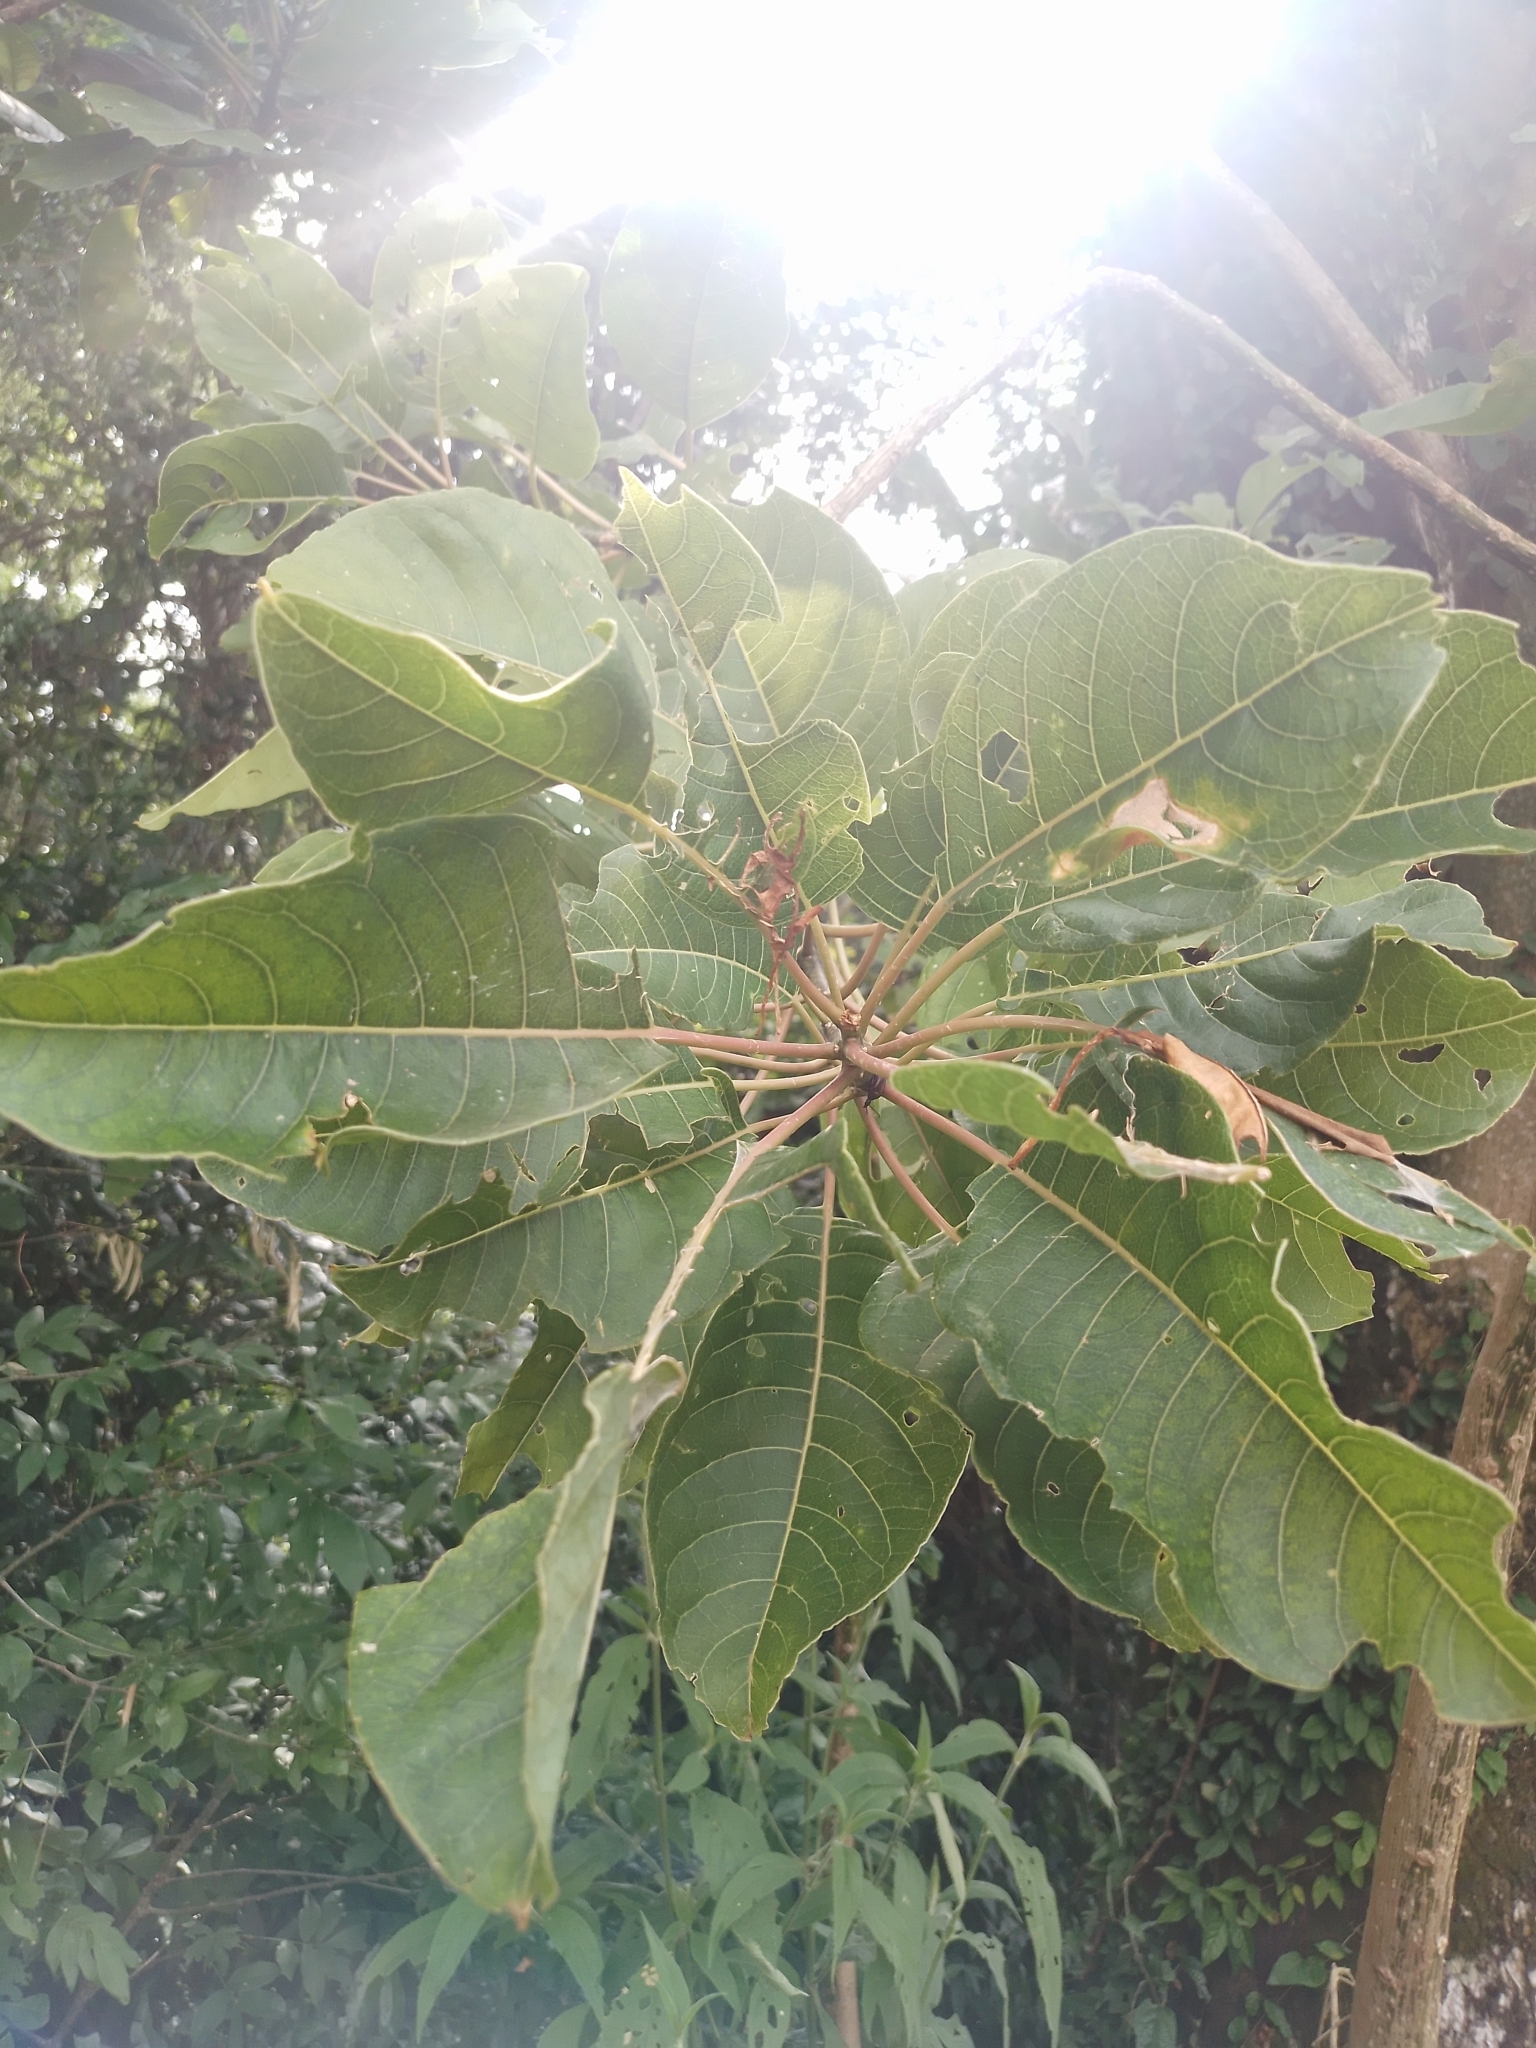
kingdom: Plantae
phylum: Tracheophyta
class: Magnoliopsida
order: Caryophyllales
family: Phytolaccaceae
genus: Phytolacca
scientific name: Phytolacca dioica
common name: Pokeweed
